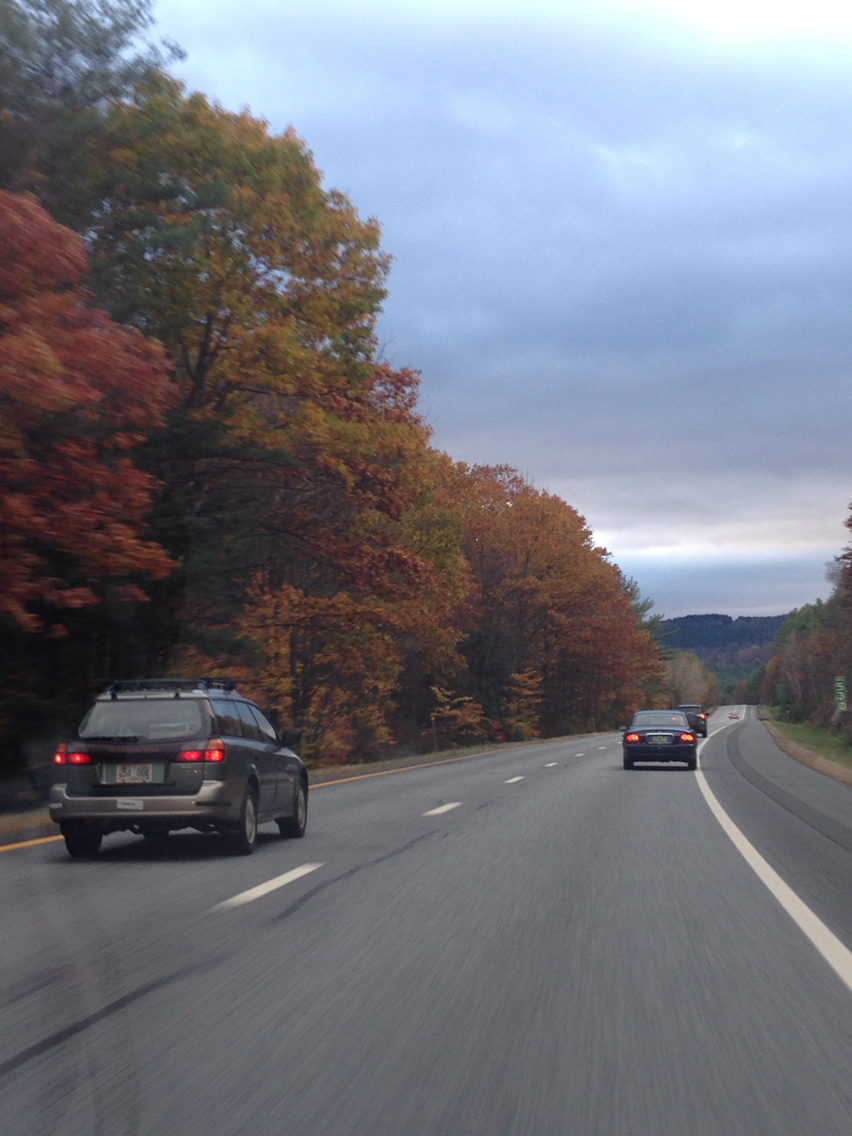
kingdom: Plantae
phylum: Tracheophyta
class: Magnoliopsida
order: Fagales
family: Fagaceae
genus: Quercus
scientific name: Quercus rubra
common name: Red oak
